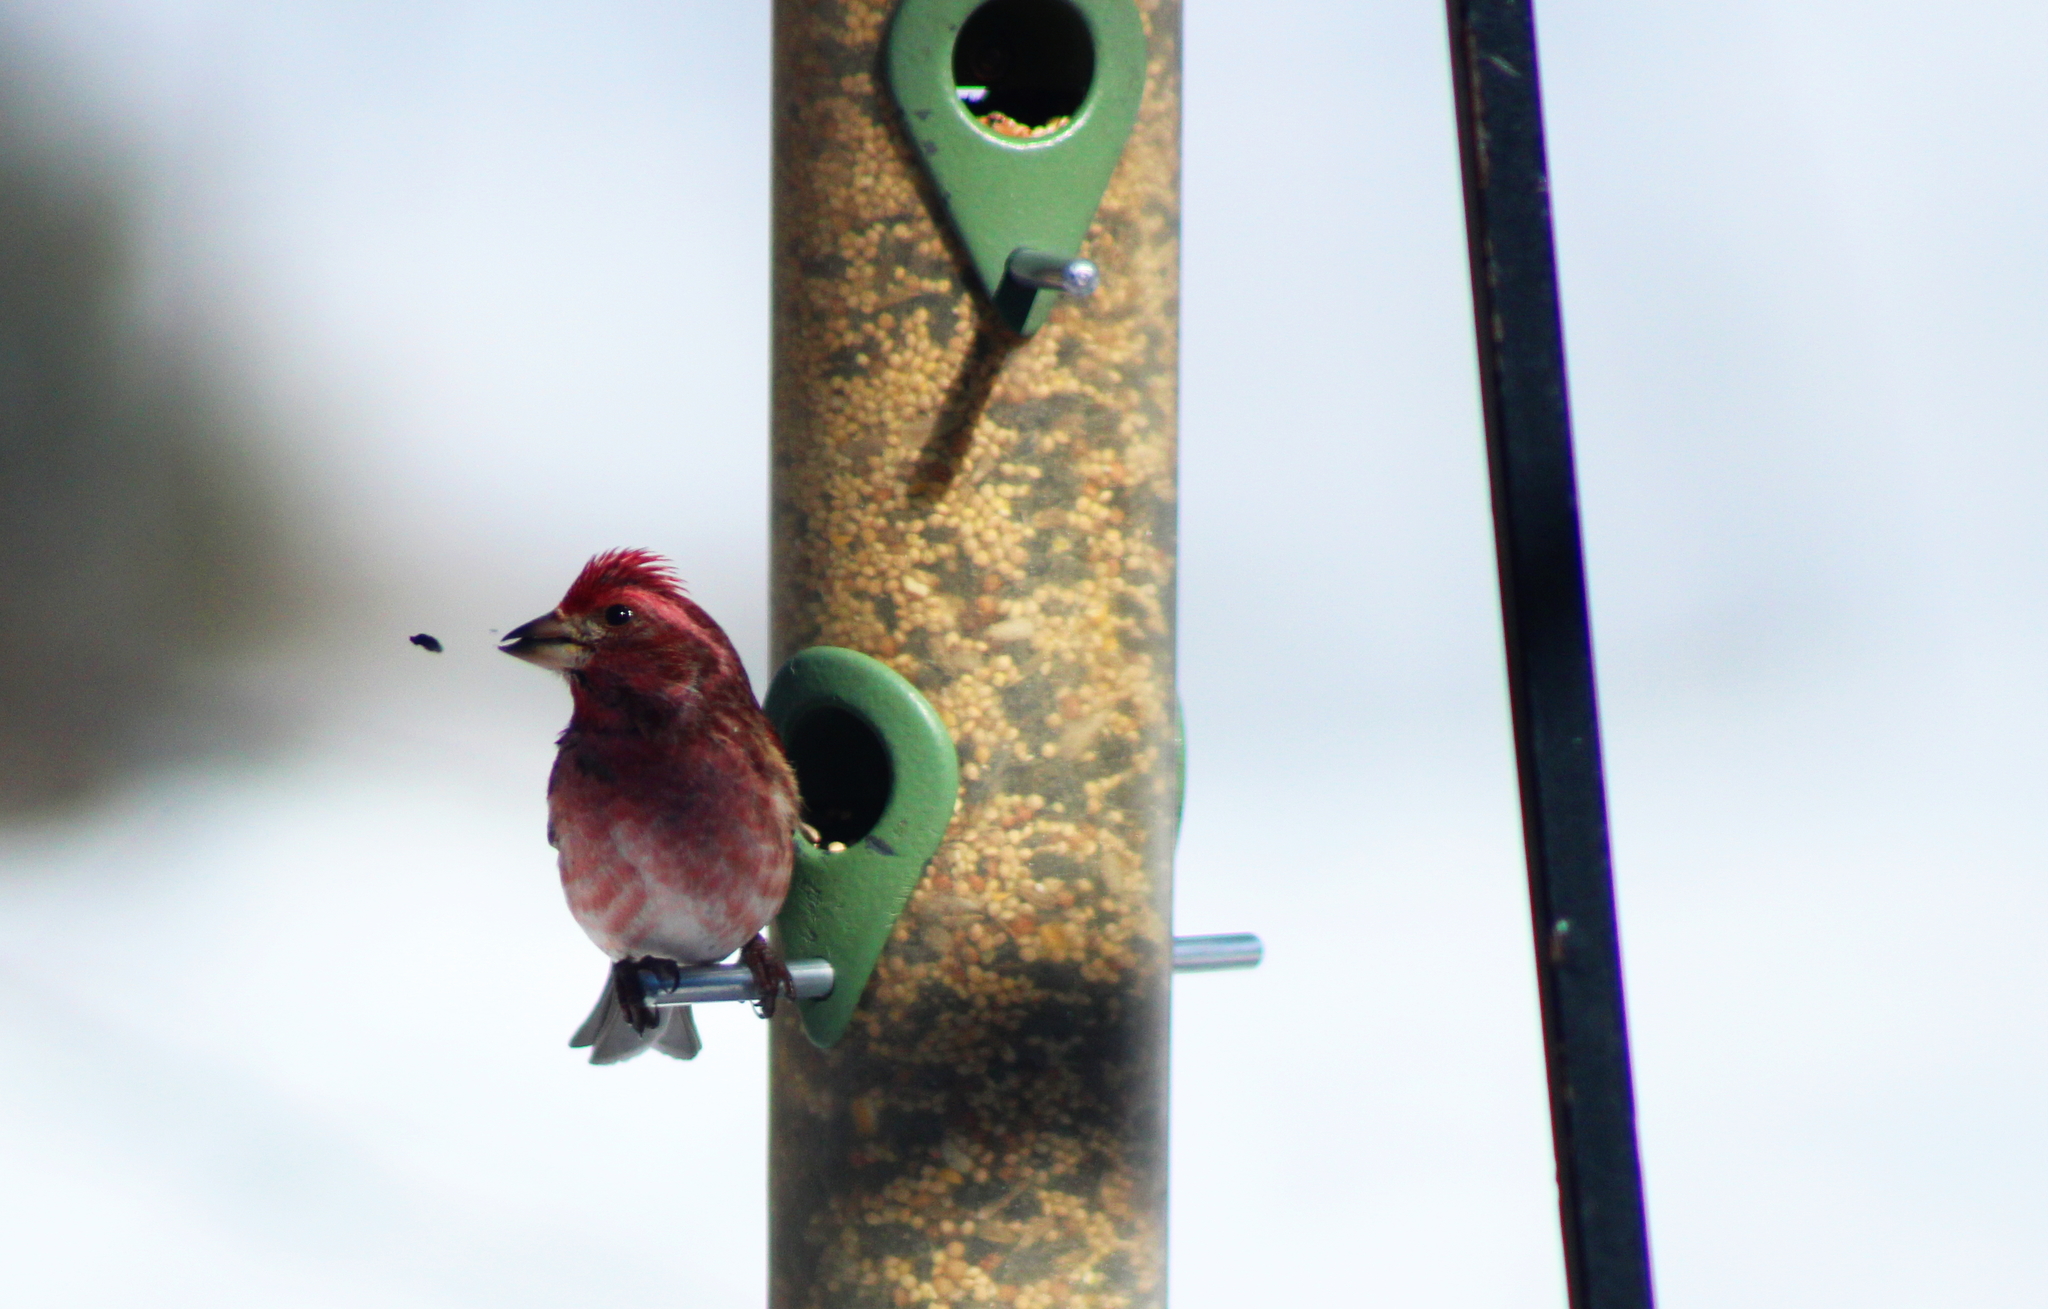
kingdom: Animalia
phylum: Chordata
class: Aves
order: Passeriformes
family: Fringillidae
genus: Haemorhous
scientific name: Haemorhous purpureus
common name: Purple finch
